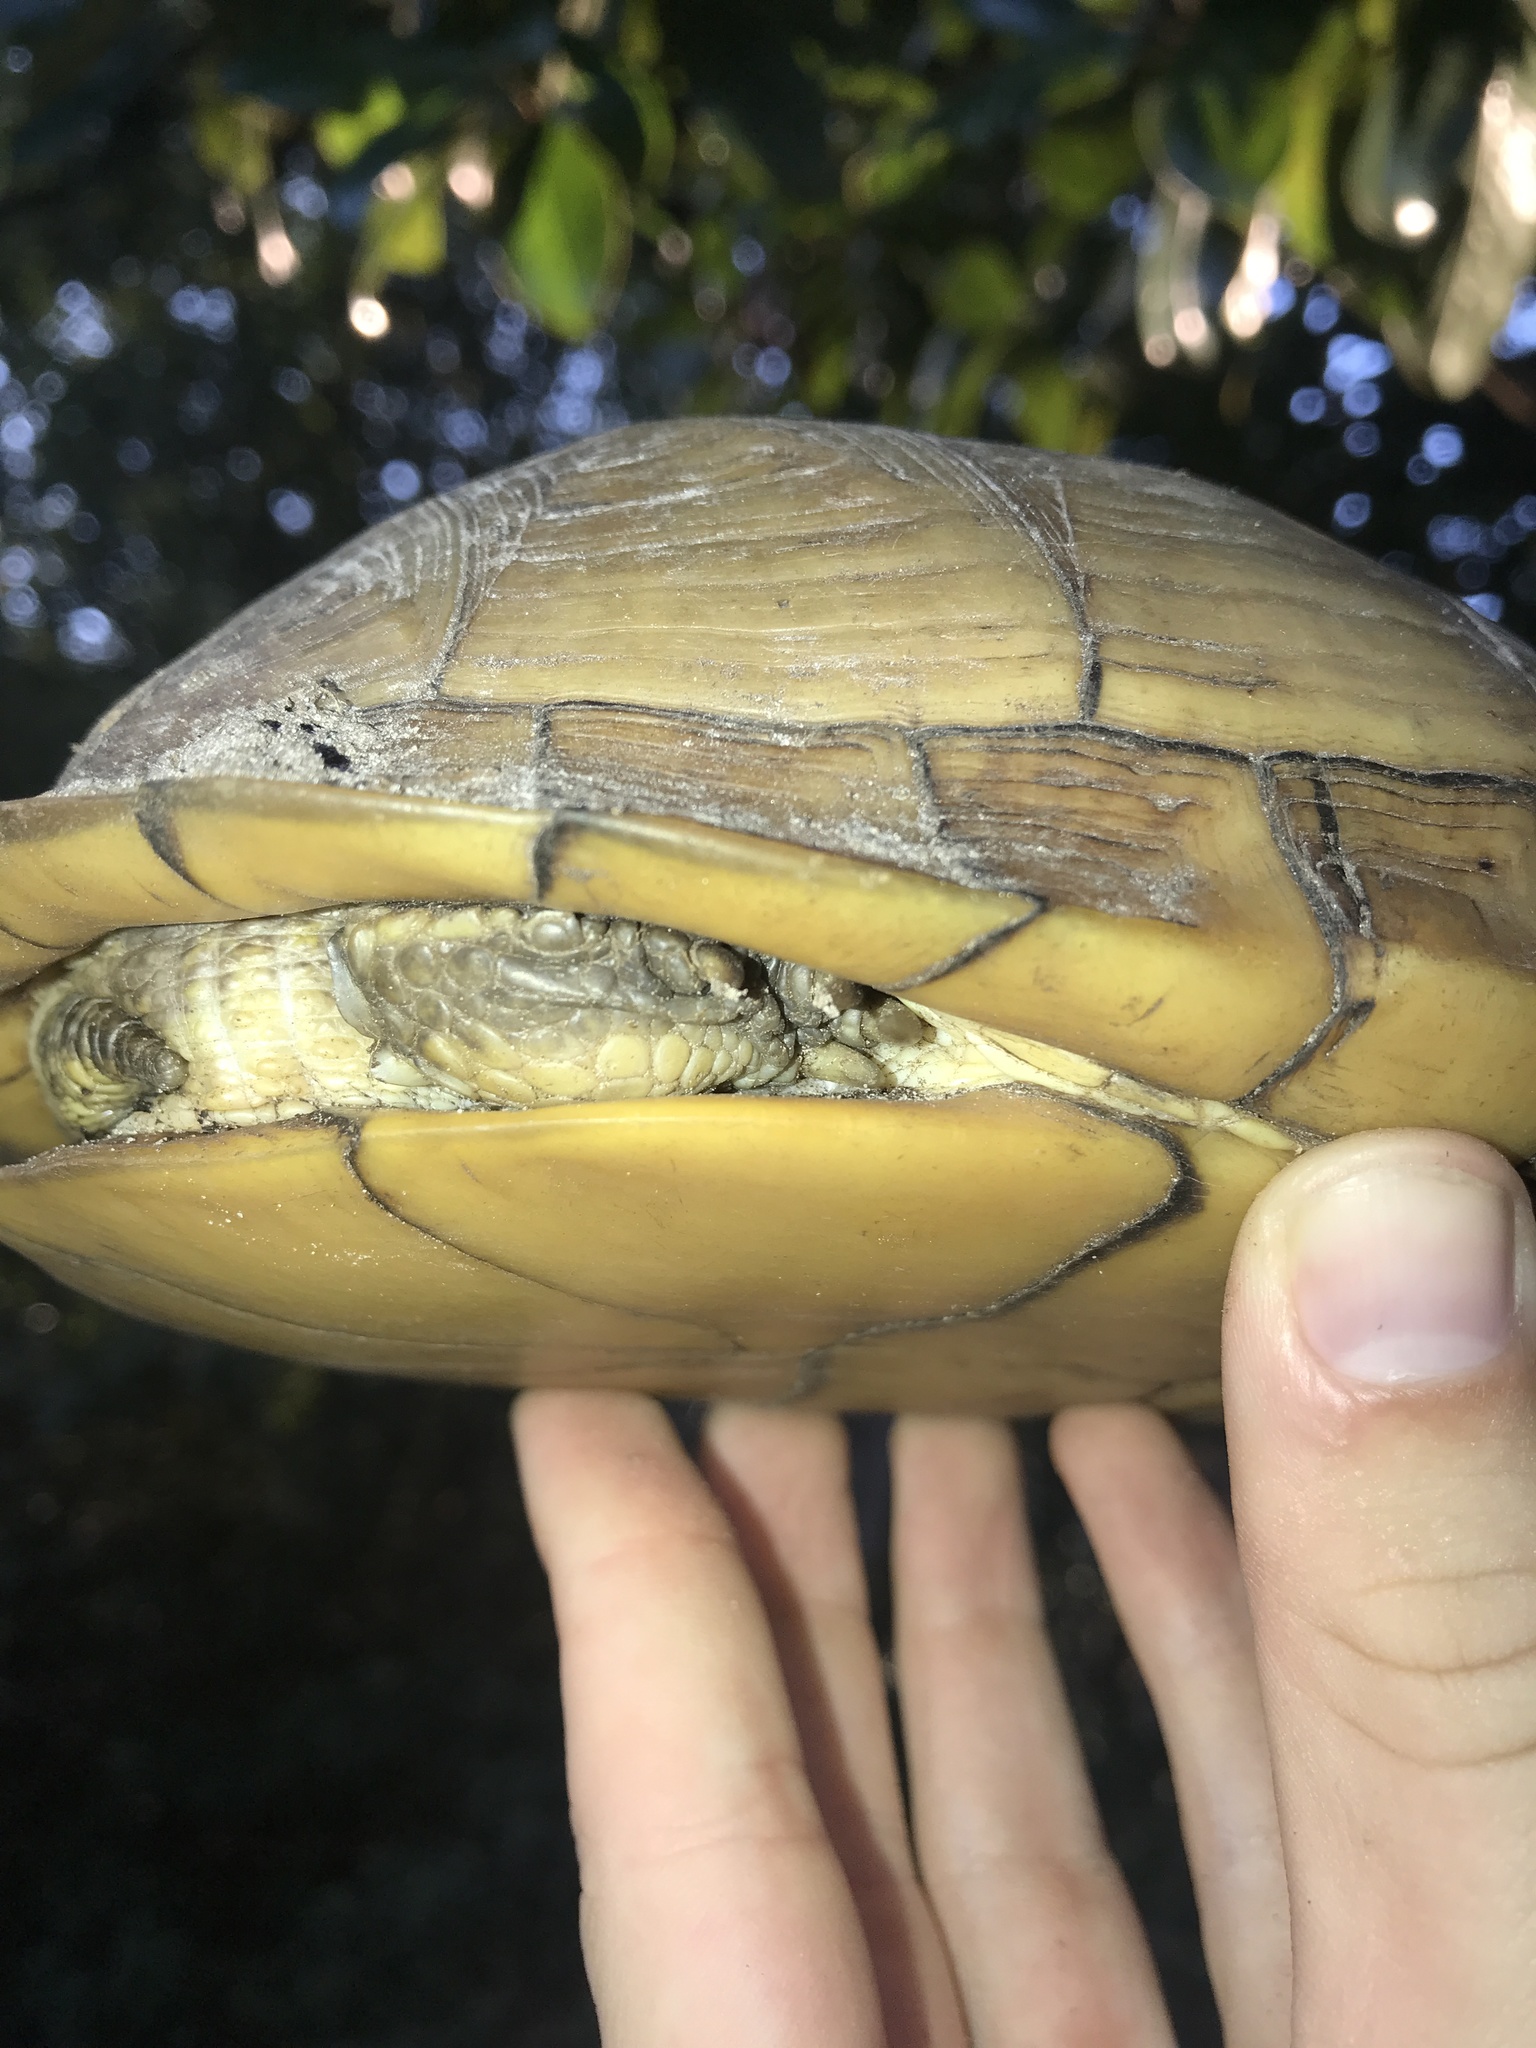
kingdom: Animalia
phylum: Chordata
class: Testudines
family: Emydidae
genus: Terrapene
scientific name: Terrapene carolina
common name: Common box turtle
